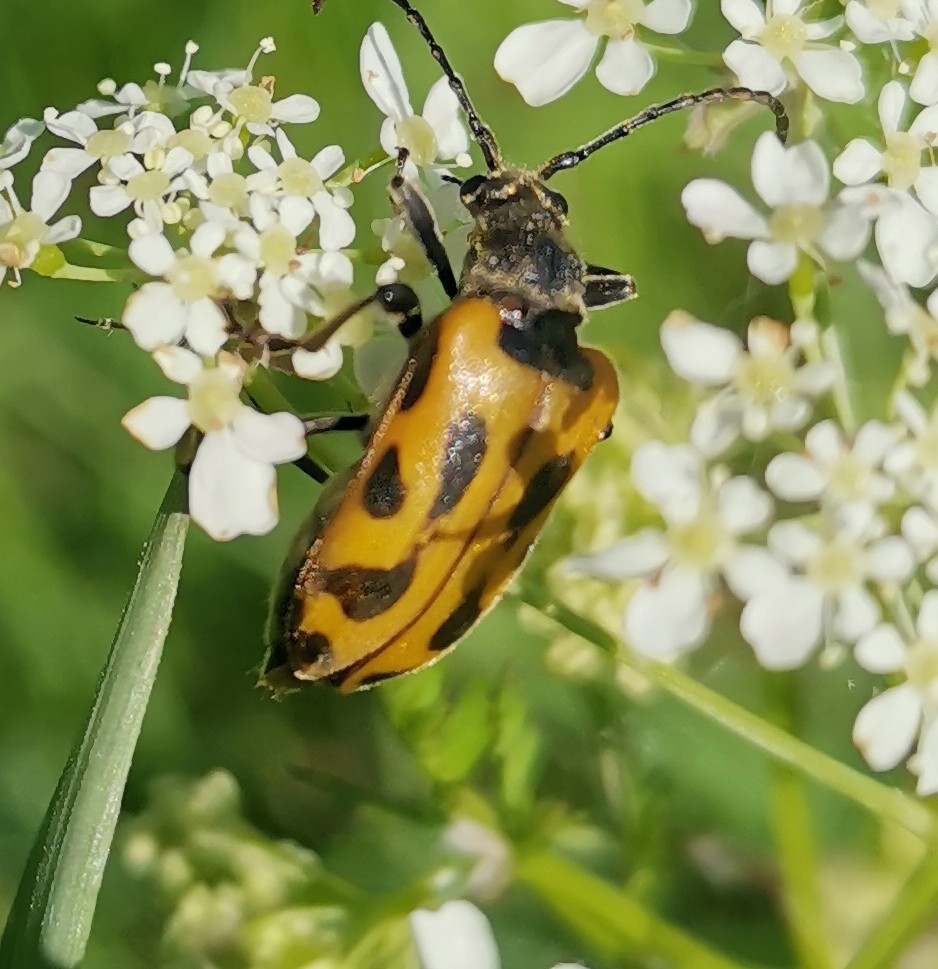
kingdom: Animalia
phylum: Arthropoda
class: Insecta
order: Coleoptera
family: Cerambycidae
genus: Brachyta
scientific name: Brachyta interrogationis
